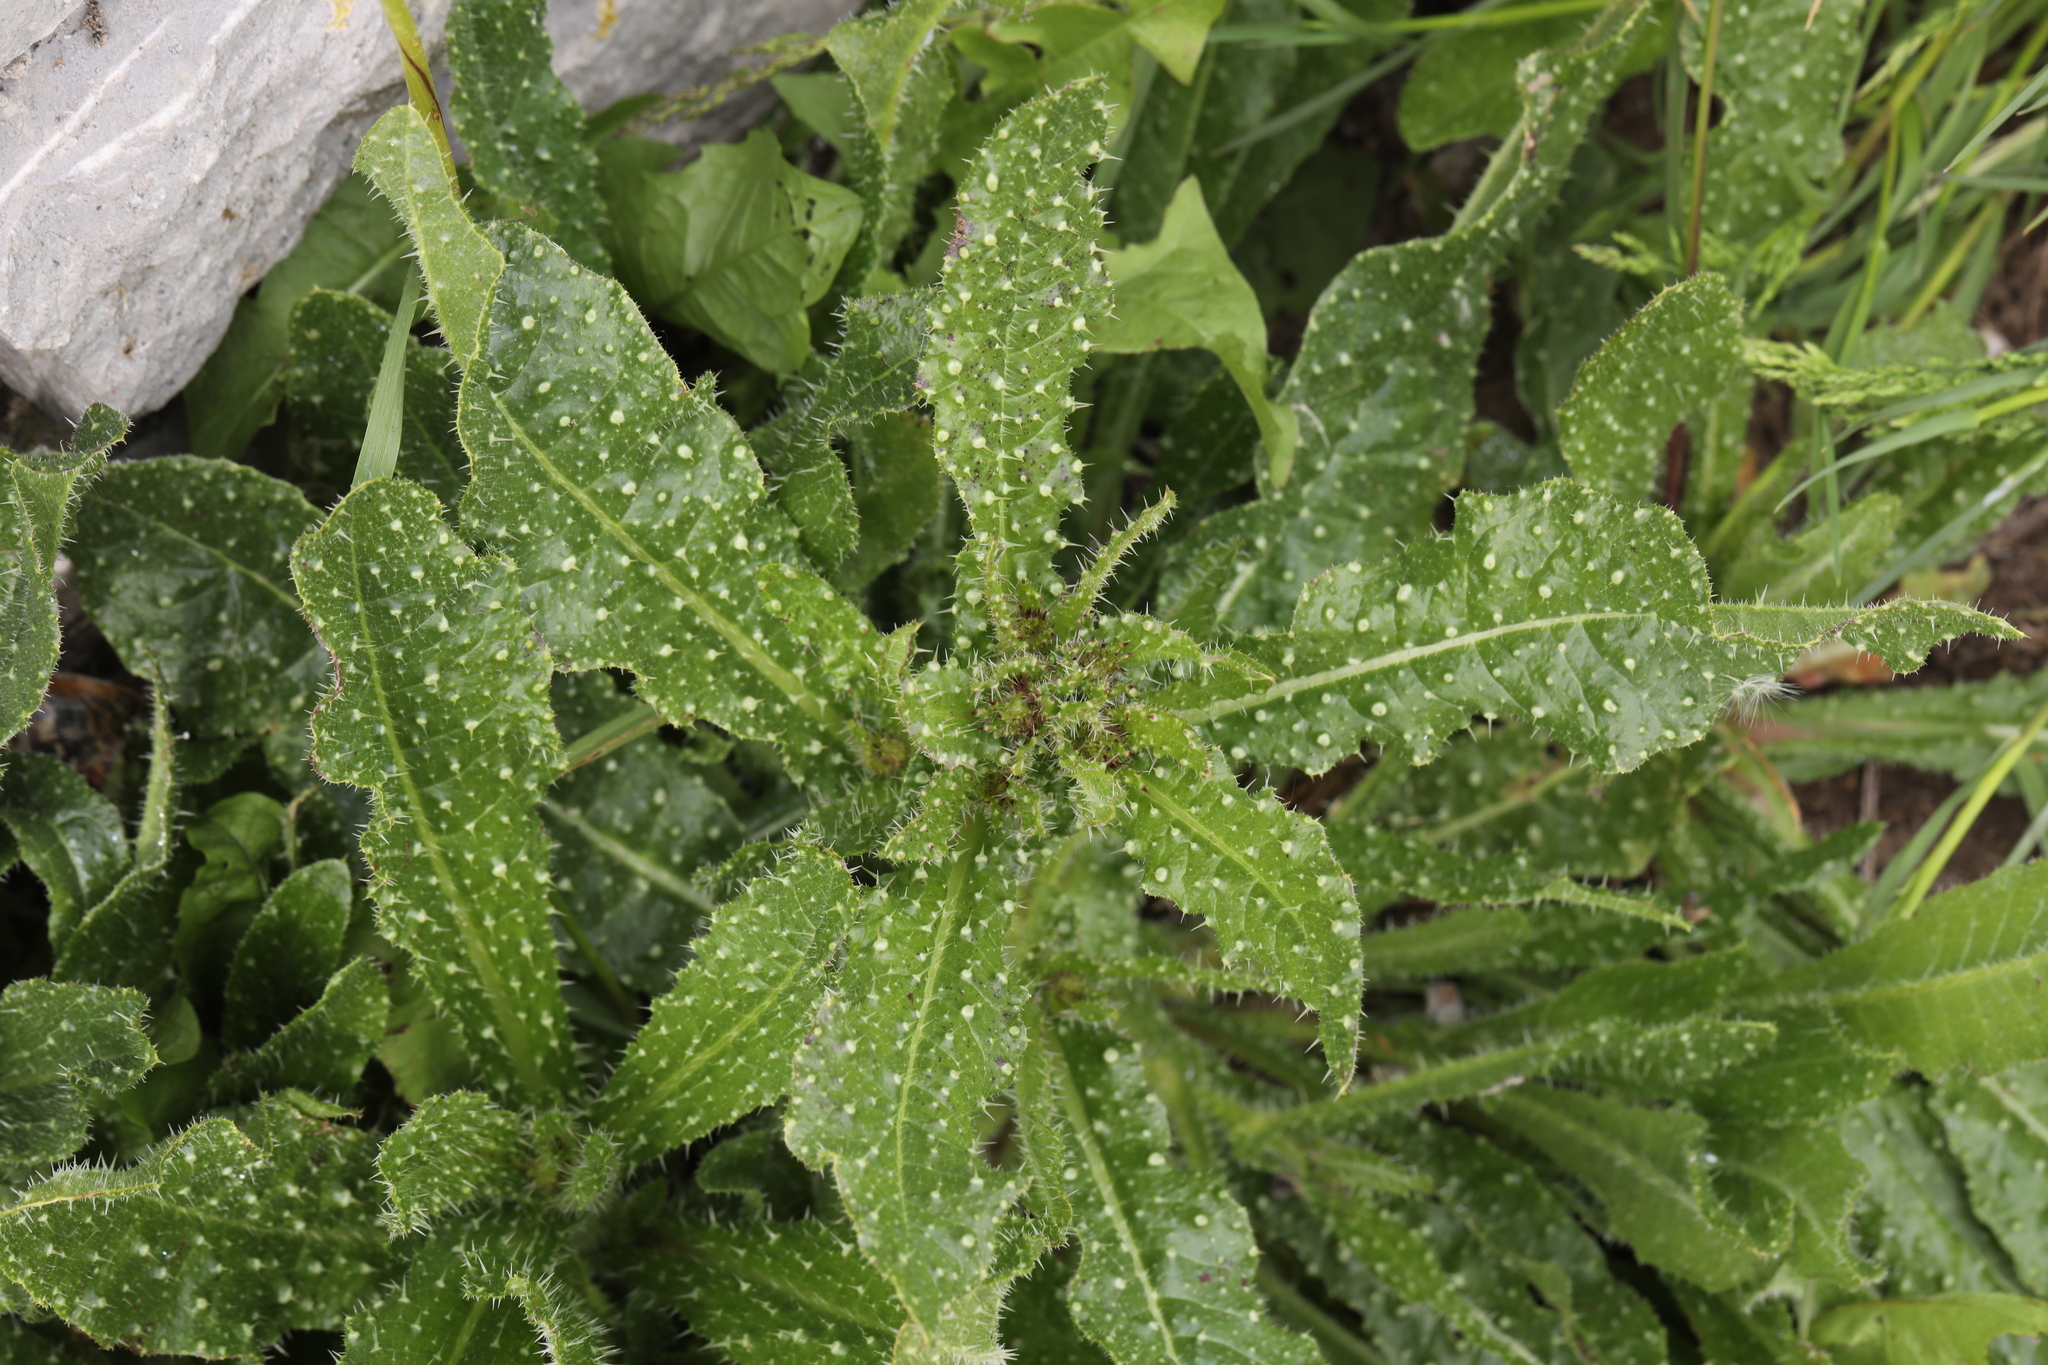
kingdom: Plantae
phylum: Tracheophyta
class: Magnoliopsida
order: Asterales
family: Asteraceae
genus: Helminthotheca
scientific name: Helminthotheca echioides
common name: Ox-tongue
